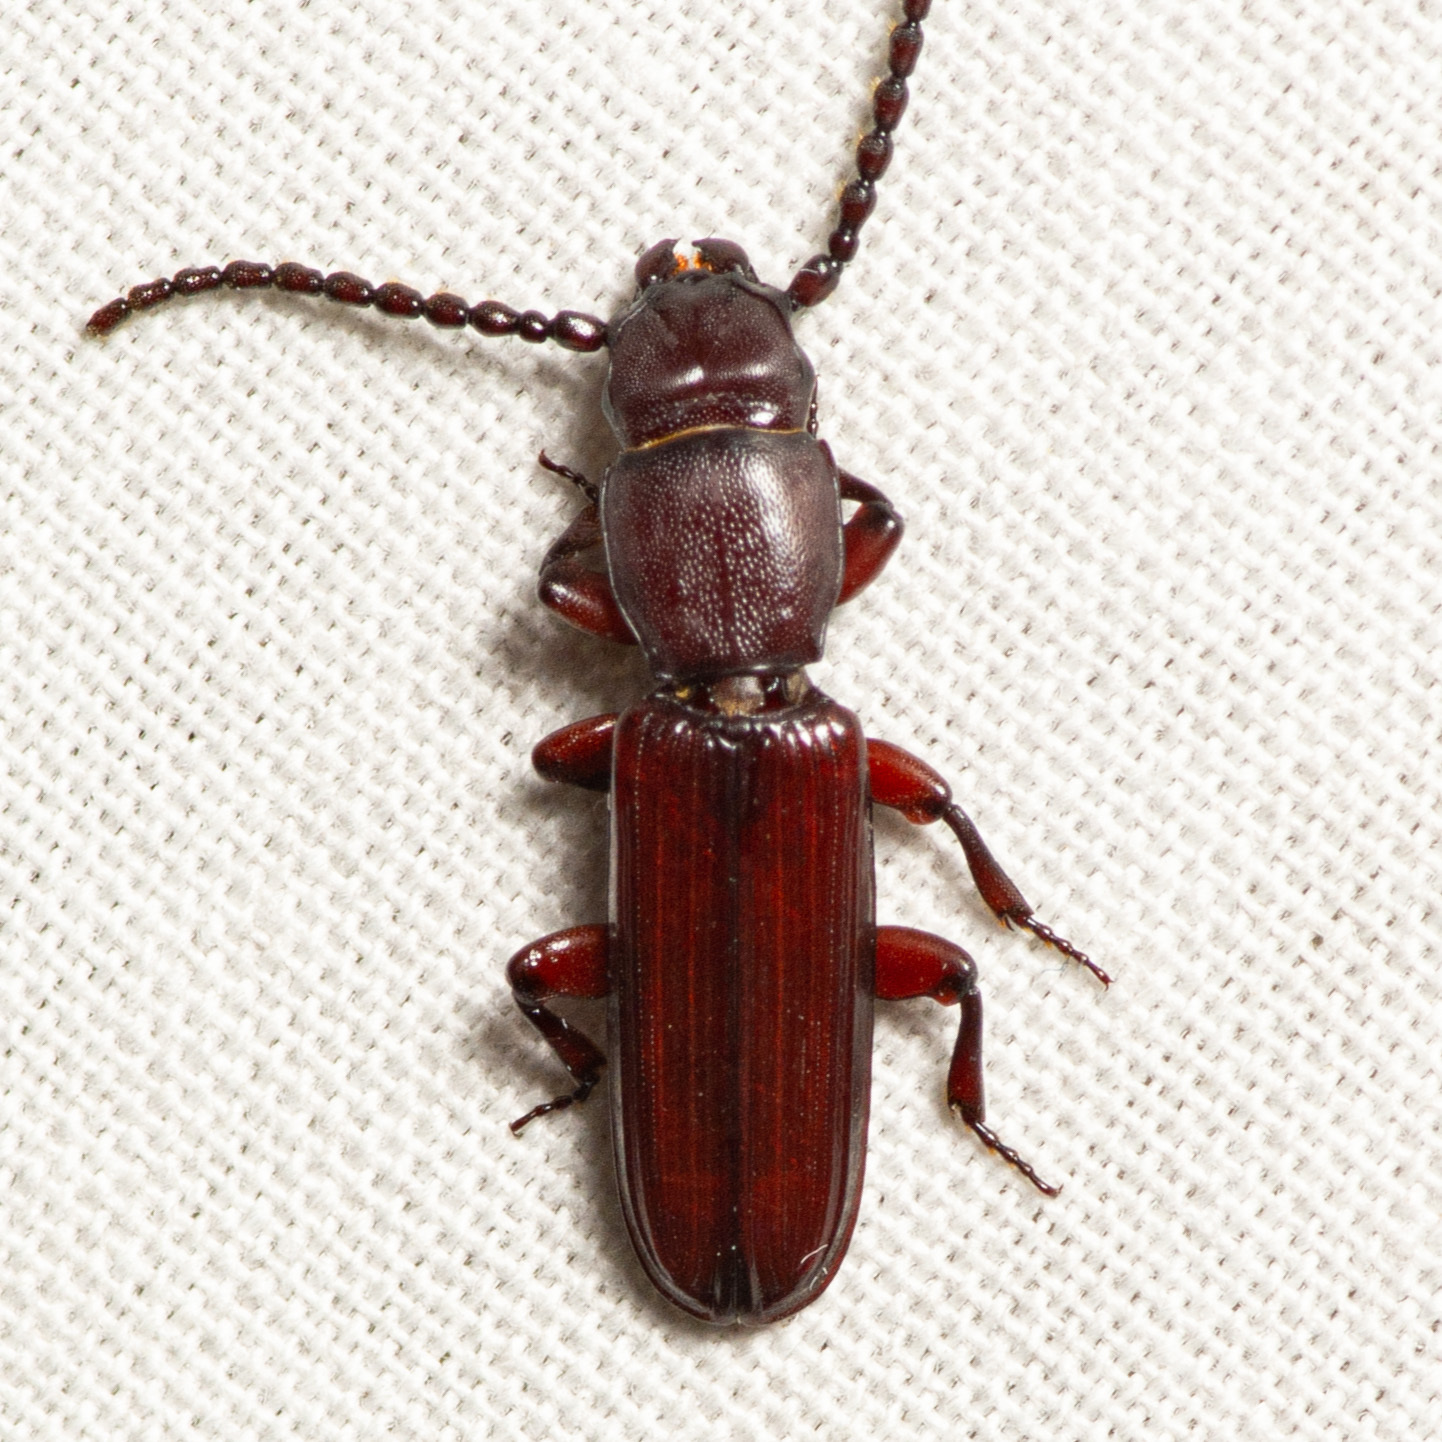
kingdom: Animalia
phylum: Arthropoda
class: Insecta
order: Coleoptera
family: Passandridae
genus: Catogenus
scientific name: Catogenus rufus
